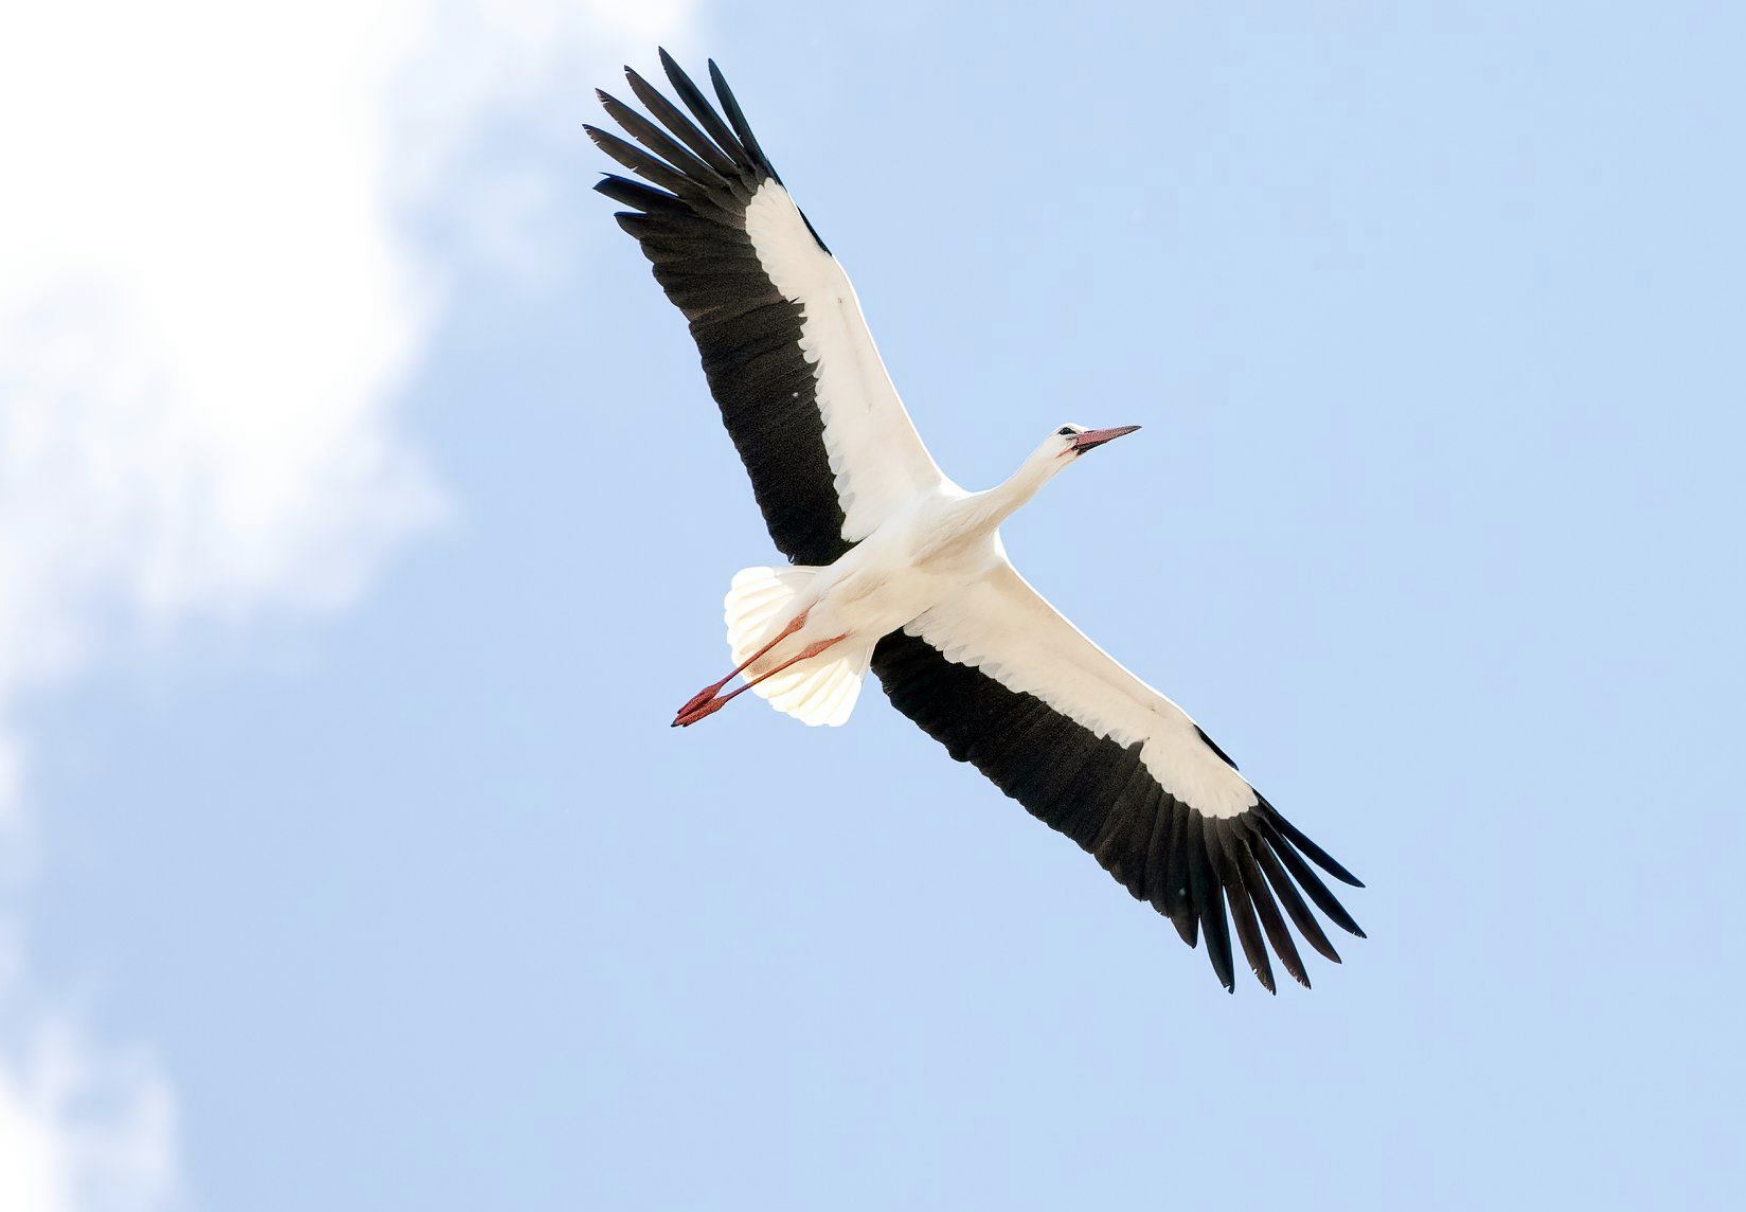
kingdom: Animalia
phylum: Chordata
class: Aves
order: Ciconiiformes
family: Ciconiidae
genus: Ciconia
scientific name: Ciconia ciconia
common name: White stork
